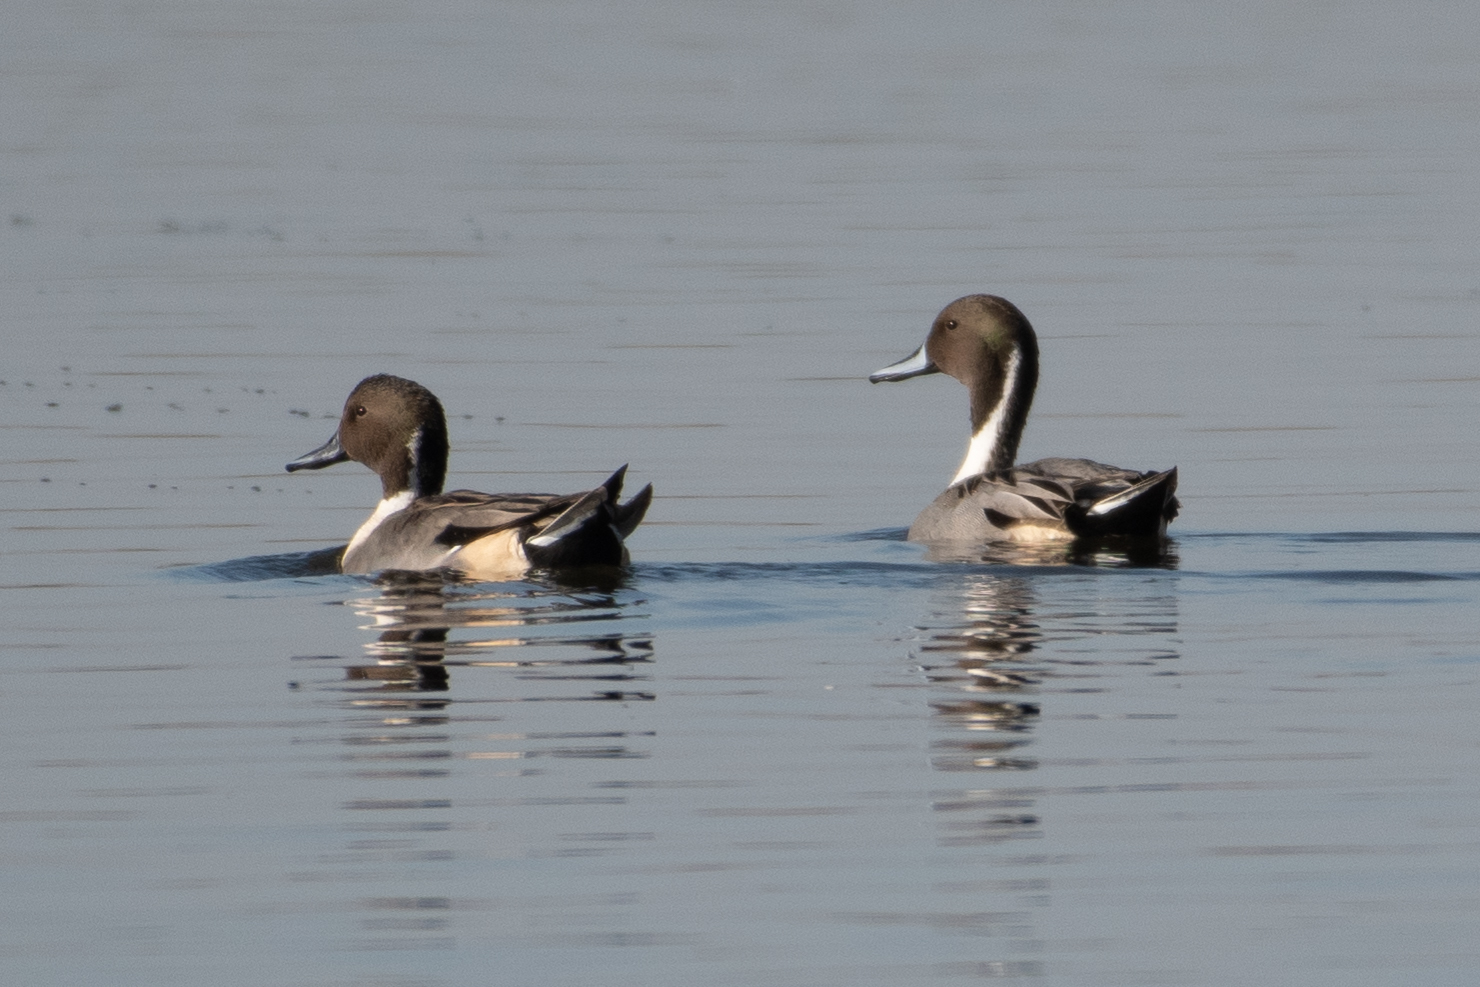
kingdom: Animalia
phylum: Chordata
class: Aves
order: Anseriformes
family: Anatidae
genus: Anas
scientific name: Anas acuta
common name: Northern pintail
